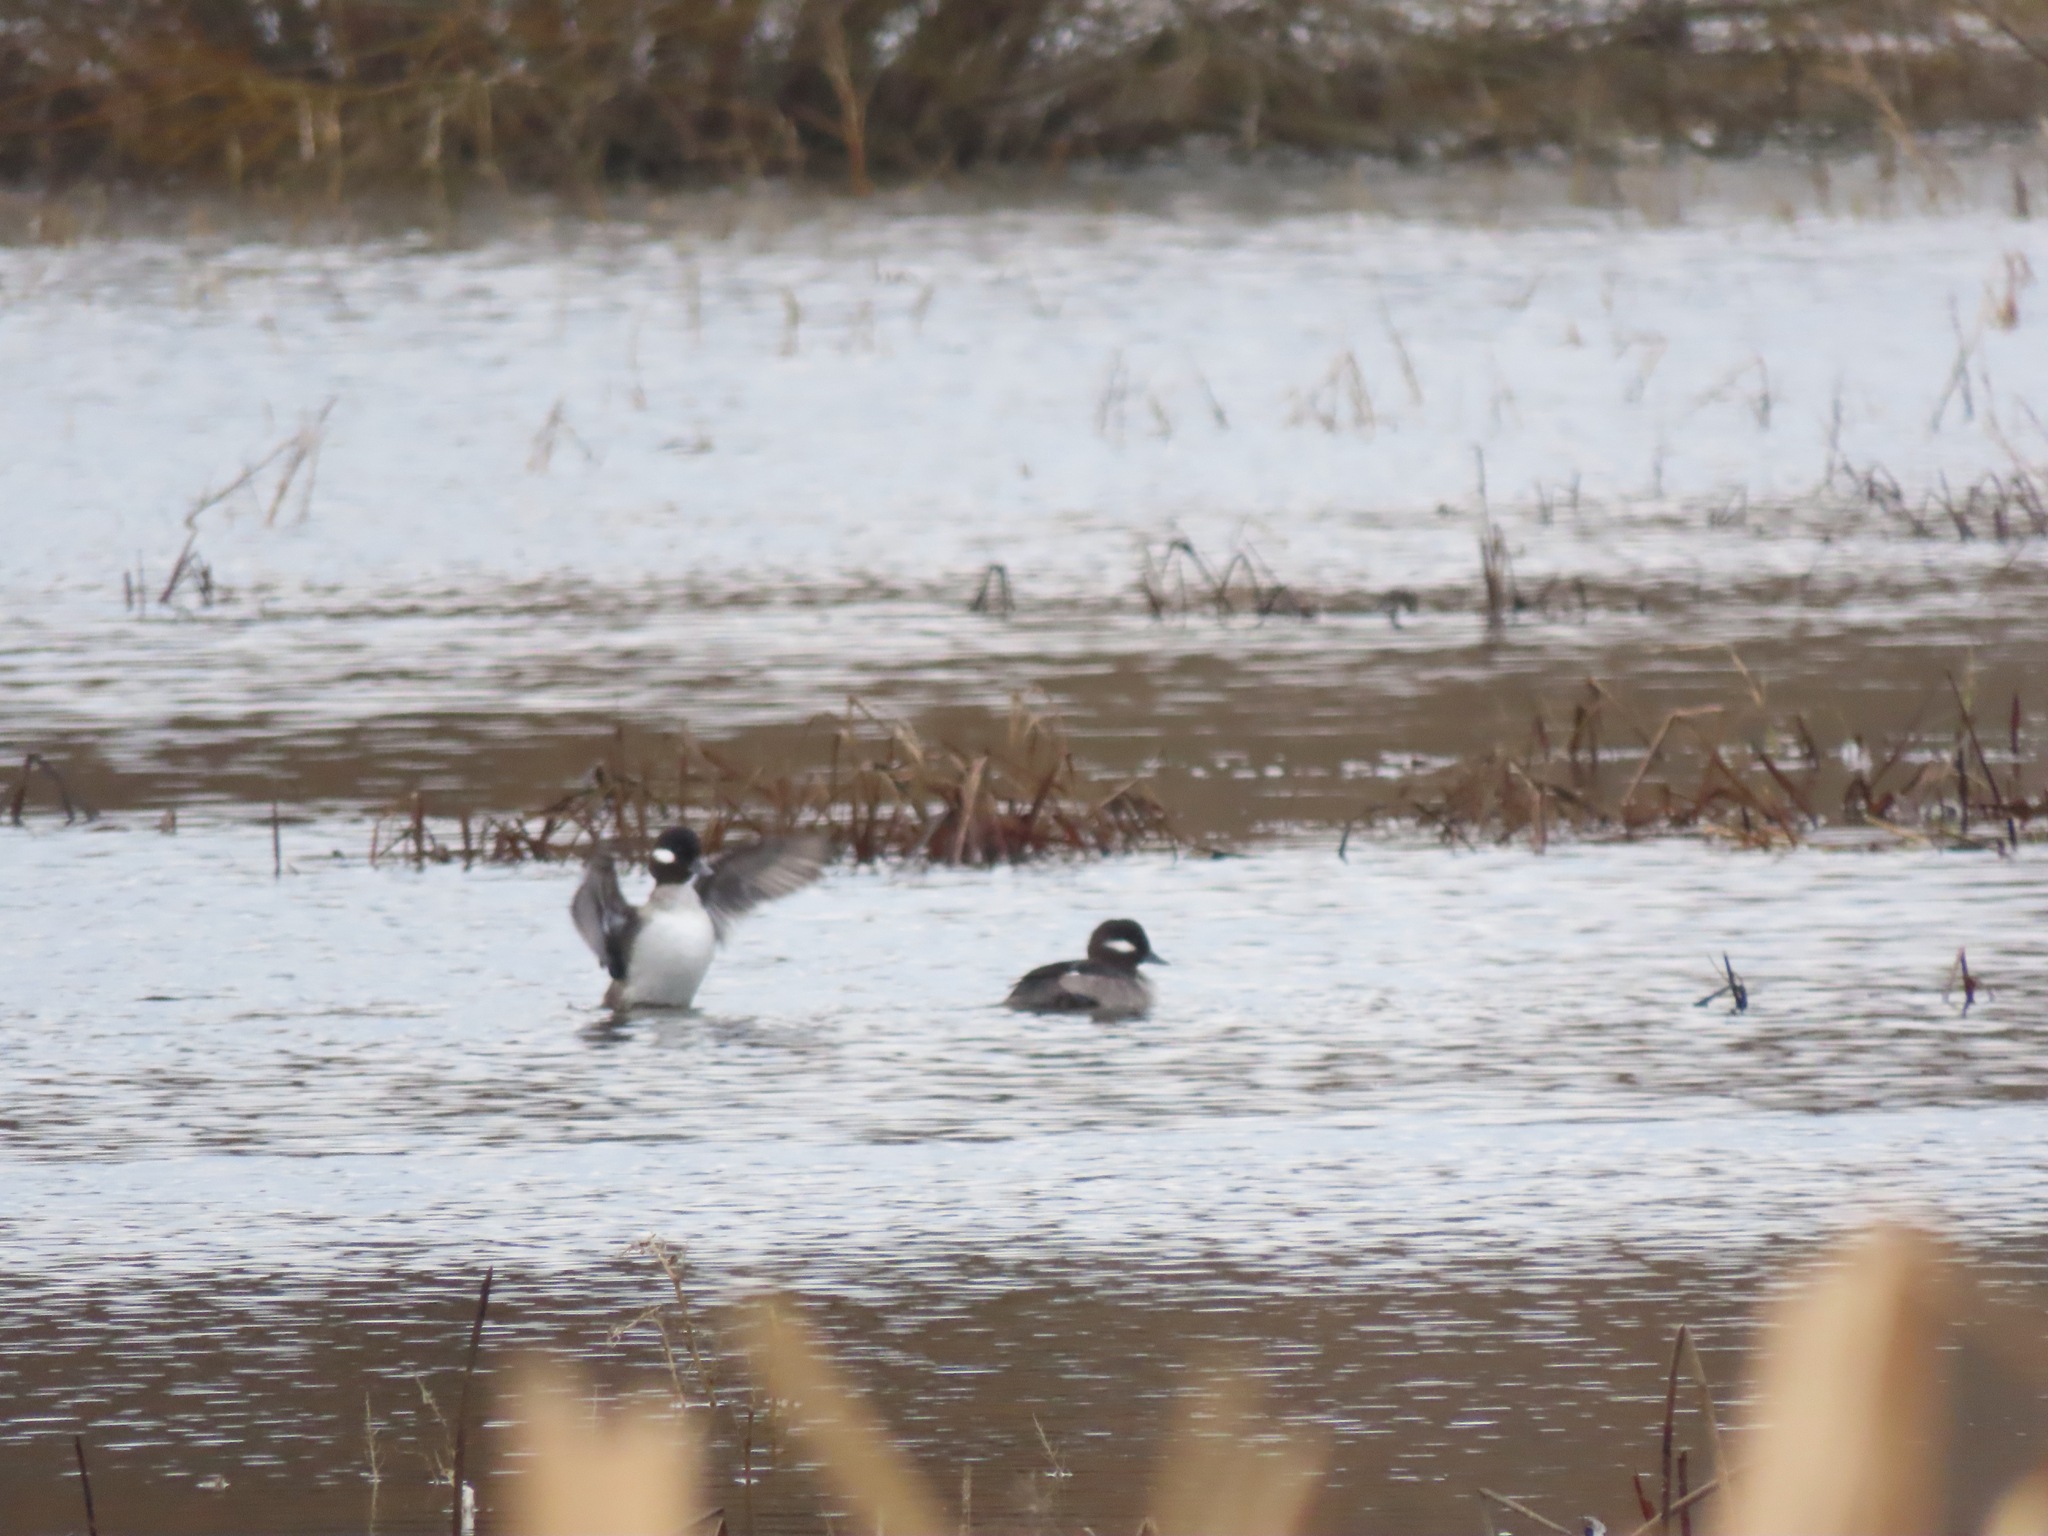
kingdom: Animalia
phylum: Chordata
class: Aves
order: Anseriformes
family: Anatidae
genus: Bucephala
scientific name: Bucephala albeola
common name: Bufflehead
